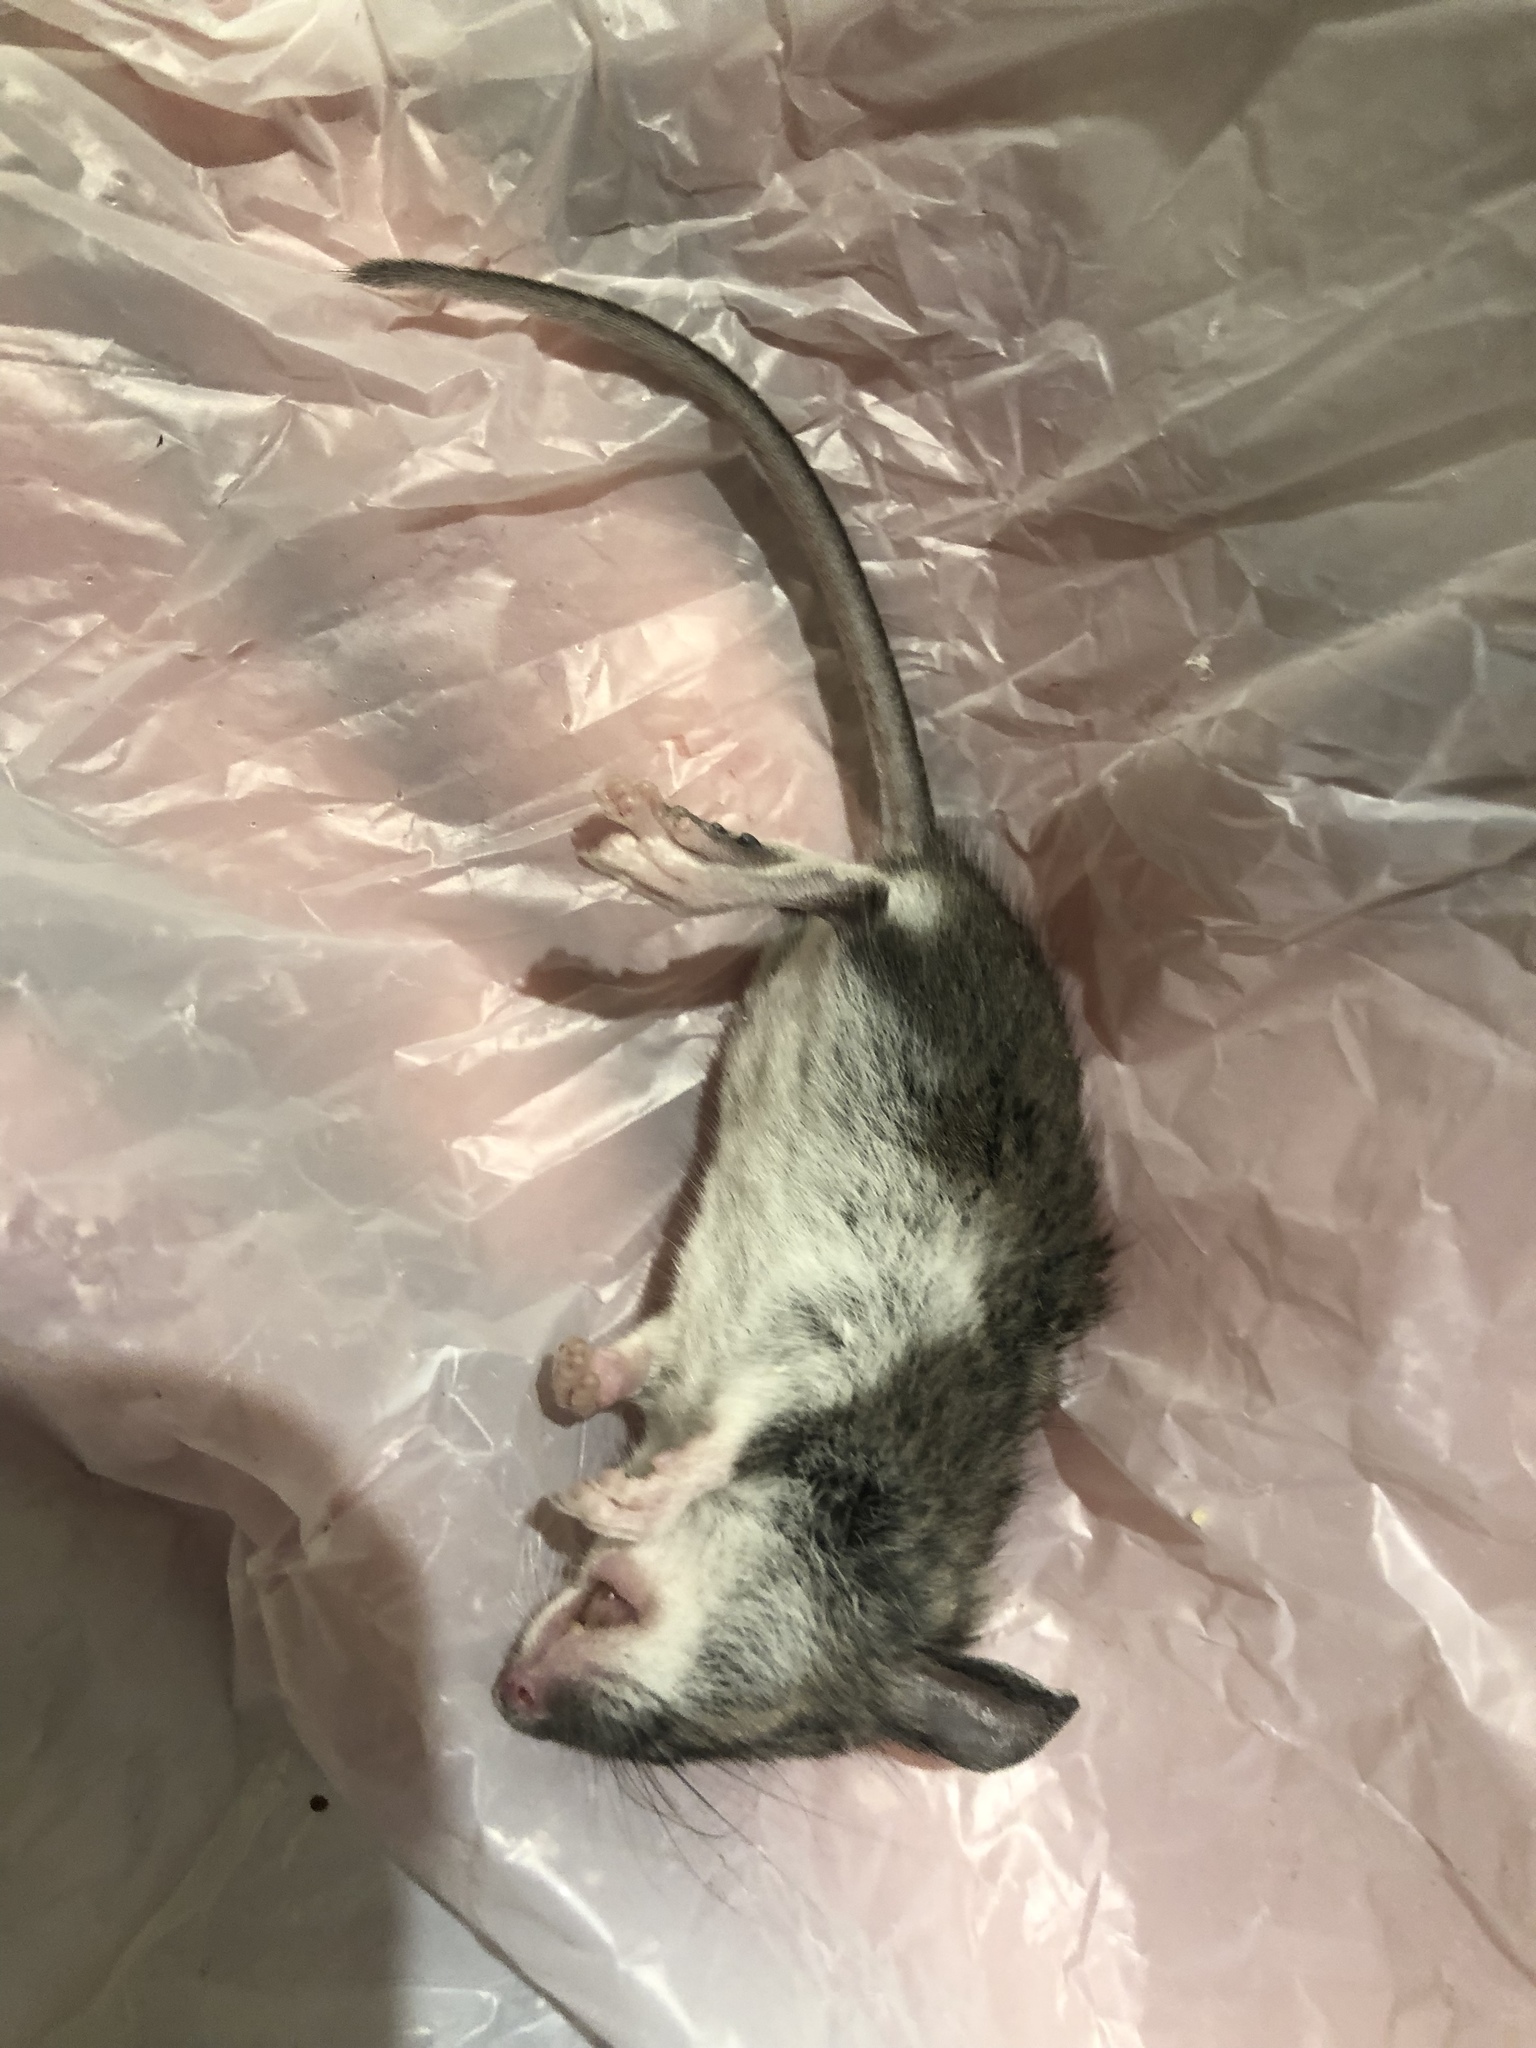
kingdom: Animalia
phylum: Chordata
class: Mammalia
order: Rodentia
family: Cricetidae
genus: Peromyscus
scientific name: Peromyscus maniculatus
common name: Deer mouse
